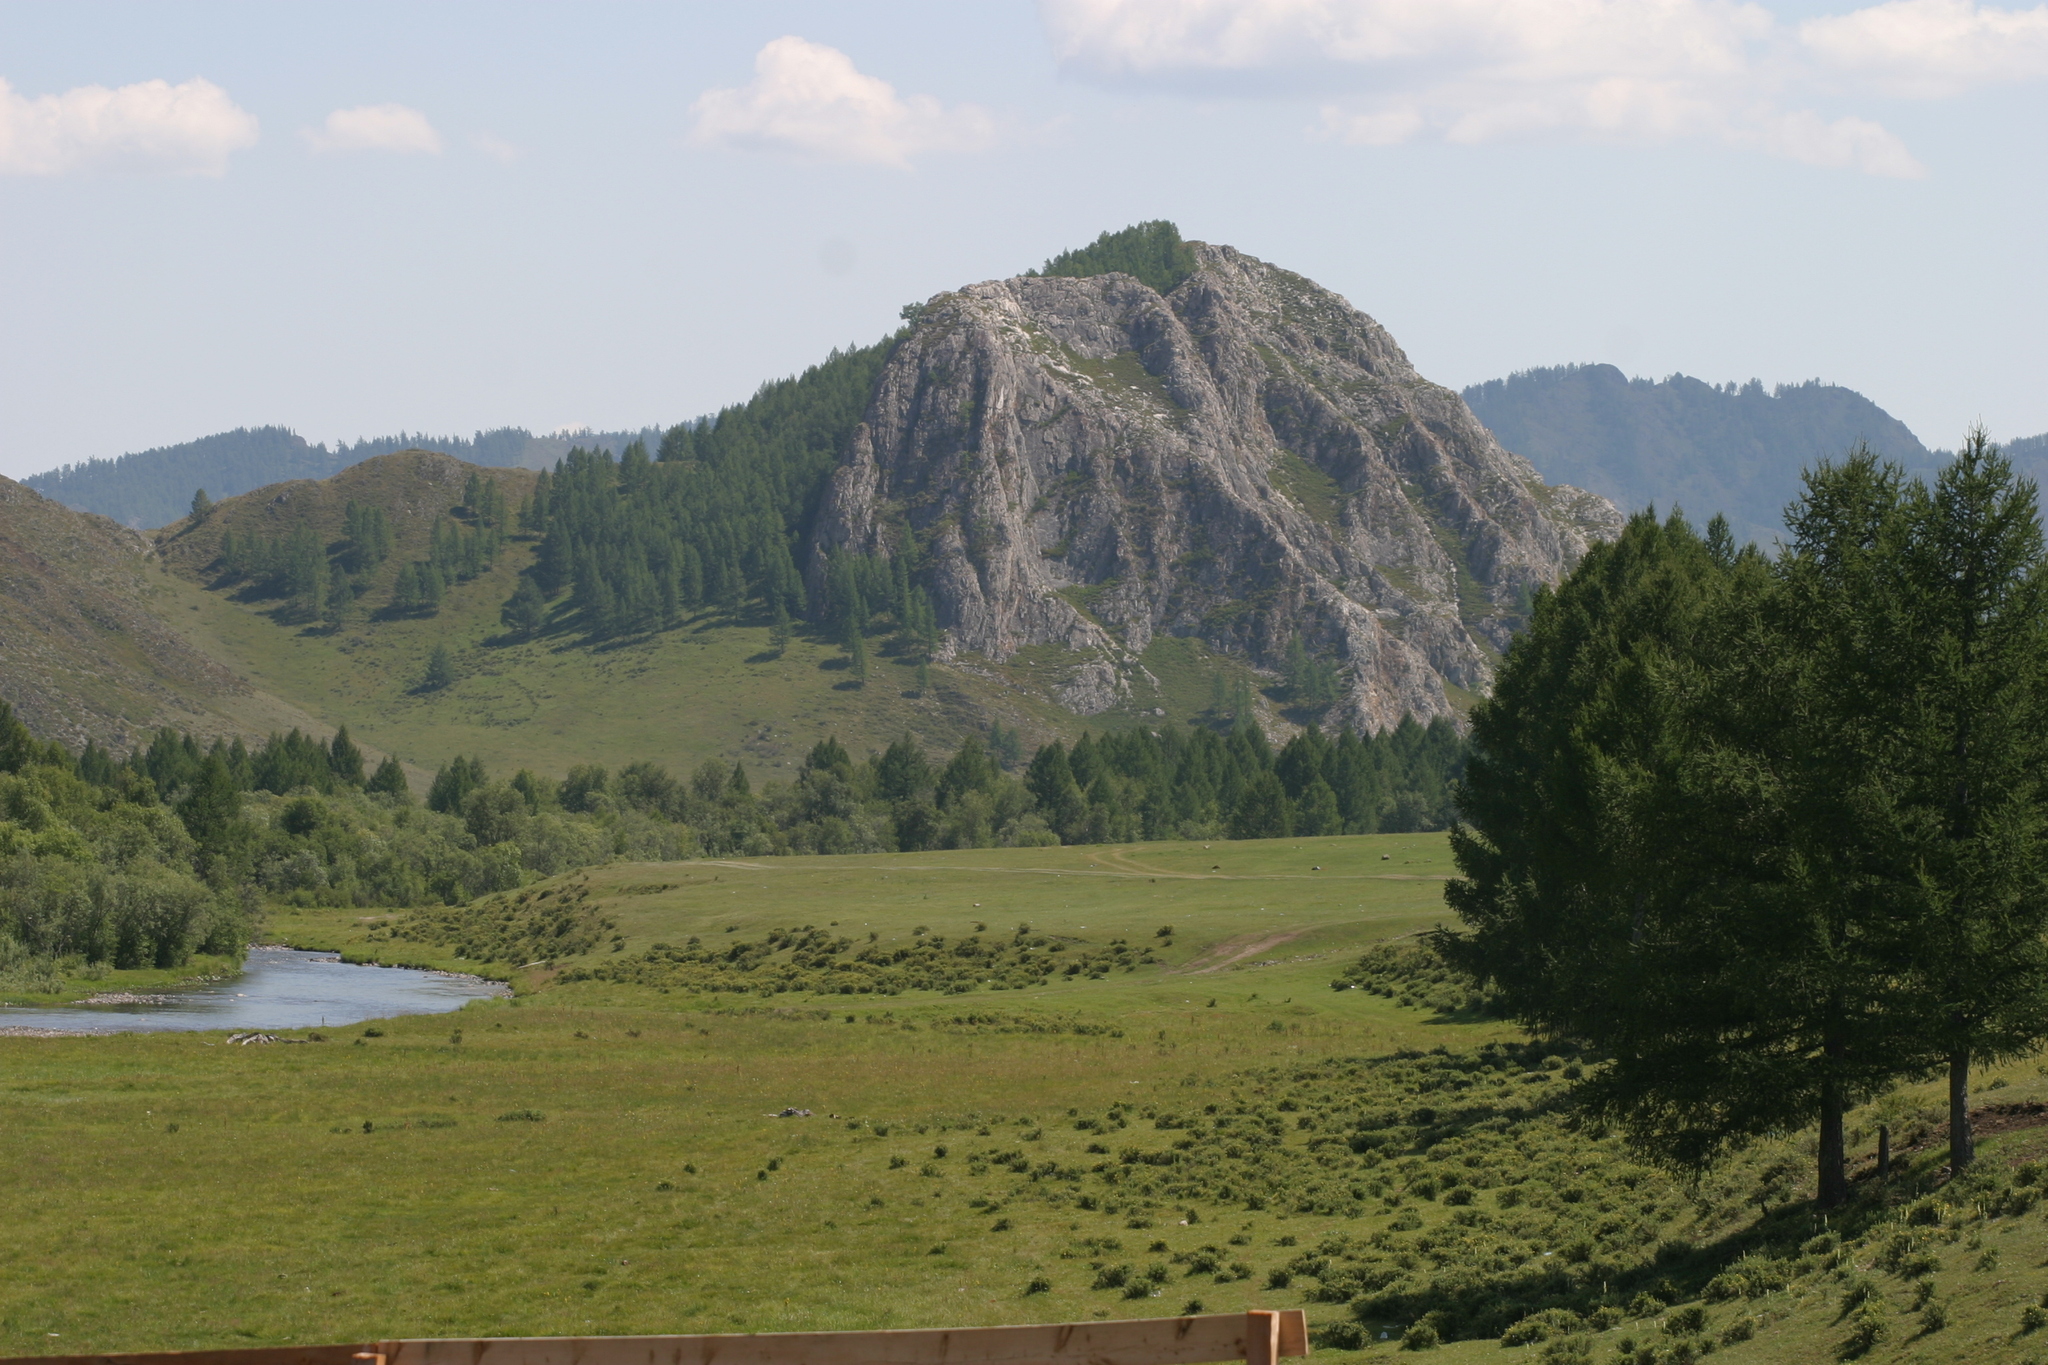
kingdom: Plantae
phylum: Tracheophyta
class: Pinopsida
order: Pinales
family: Pinaceae
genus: Larix
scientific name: Larix sibirica
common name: Siberian larch
